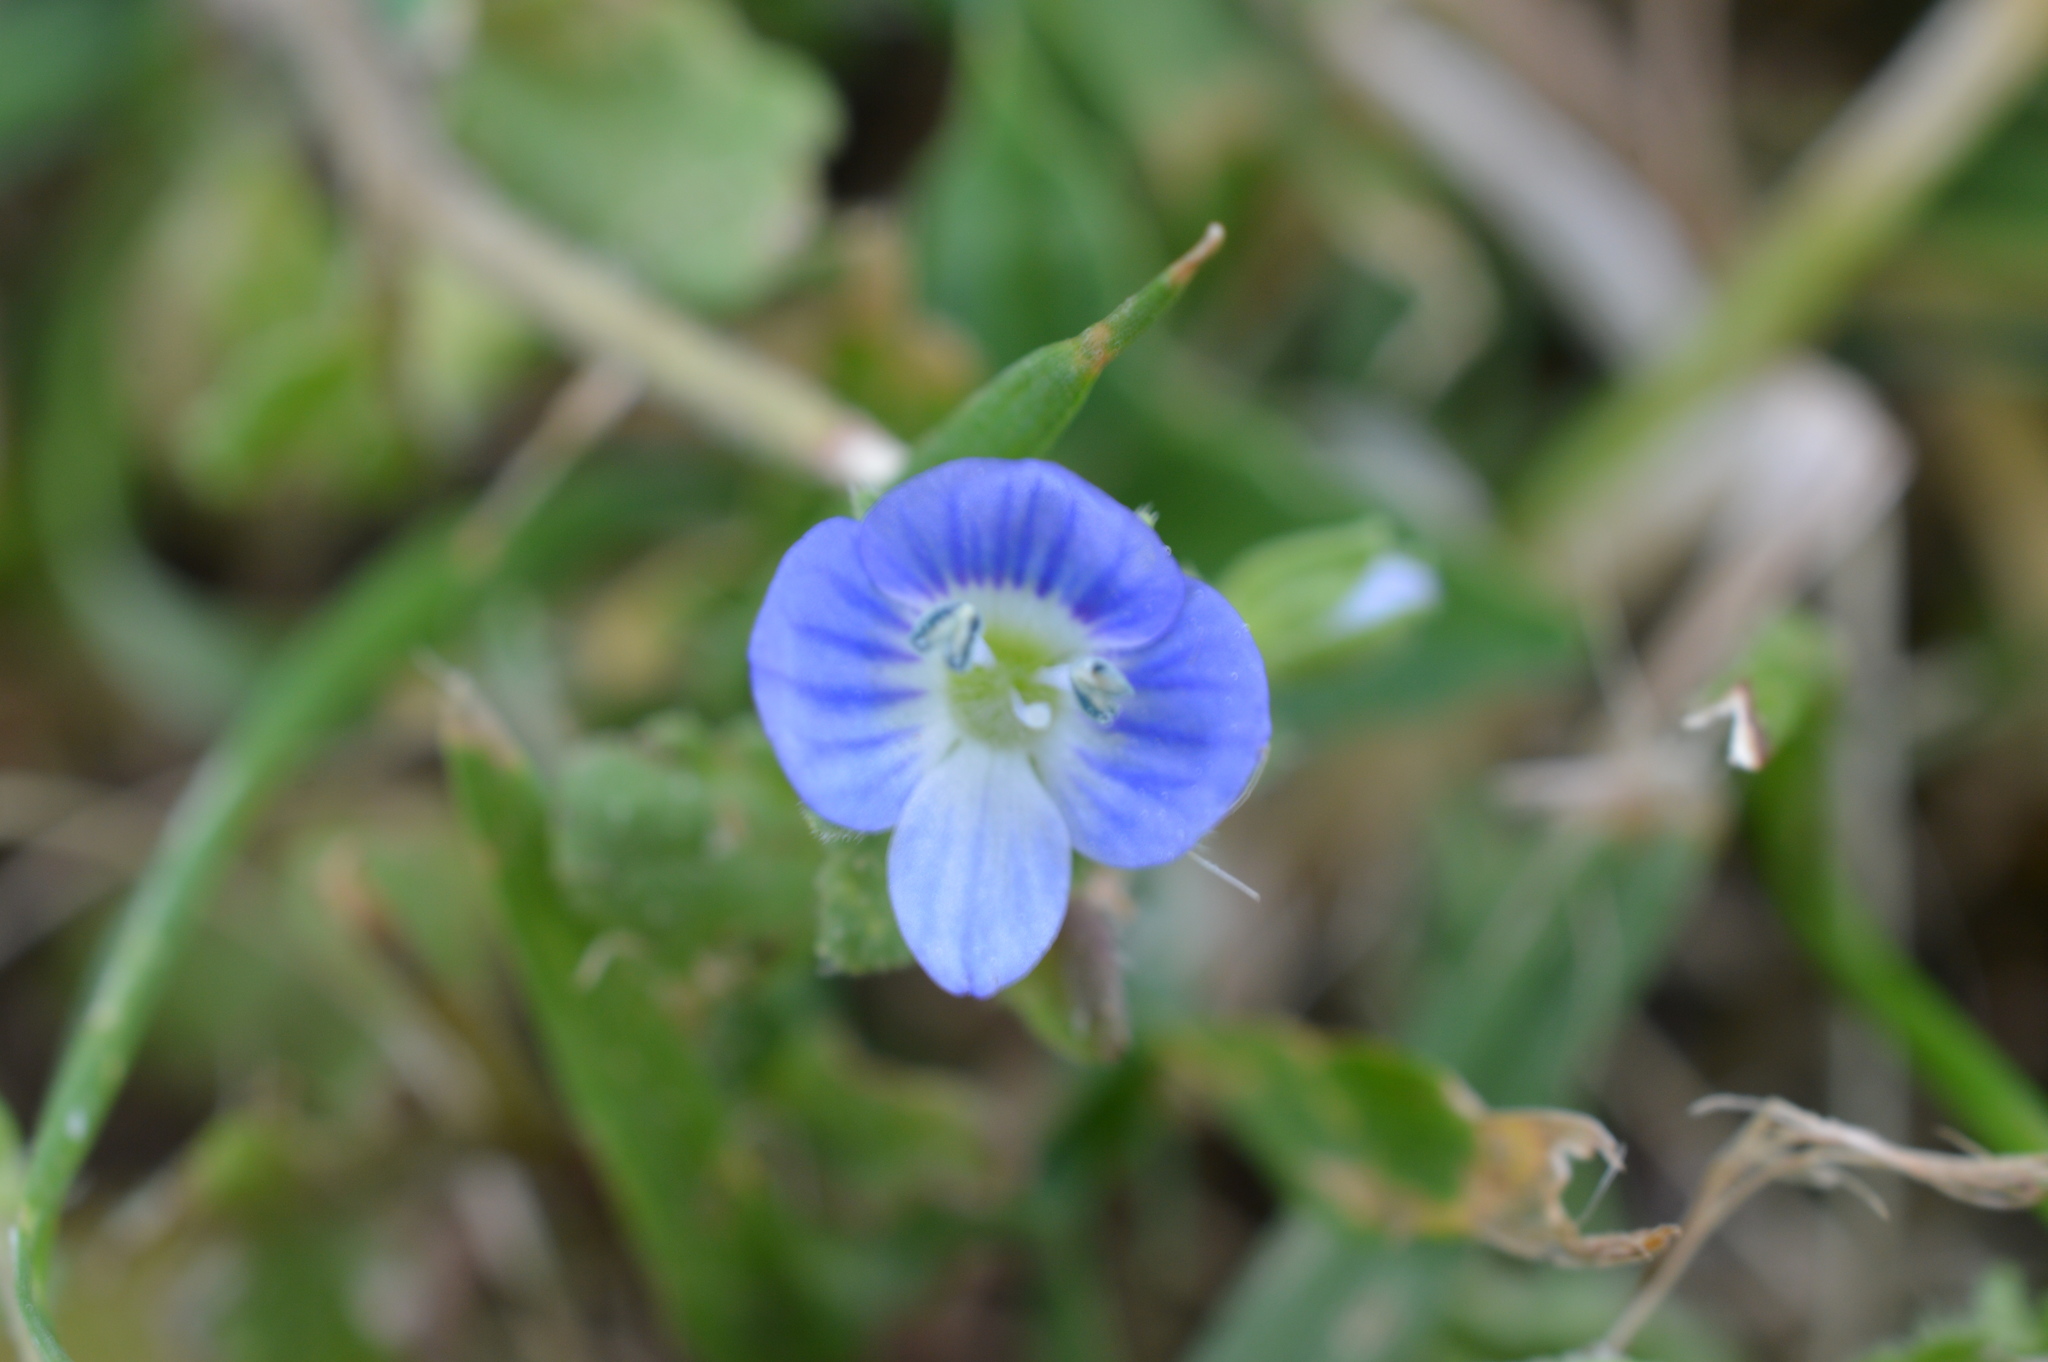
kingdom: Plantae
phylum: Tracheophyta
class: Magnoliopsida
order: Lamiales
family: Plantaginaceae
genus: Veronica
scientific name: Veronica persica
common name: Common field-speedwell
